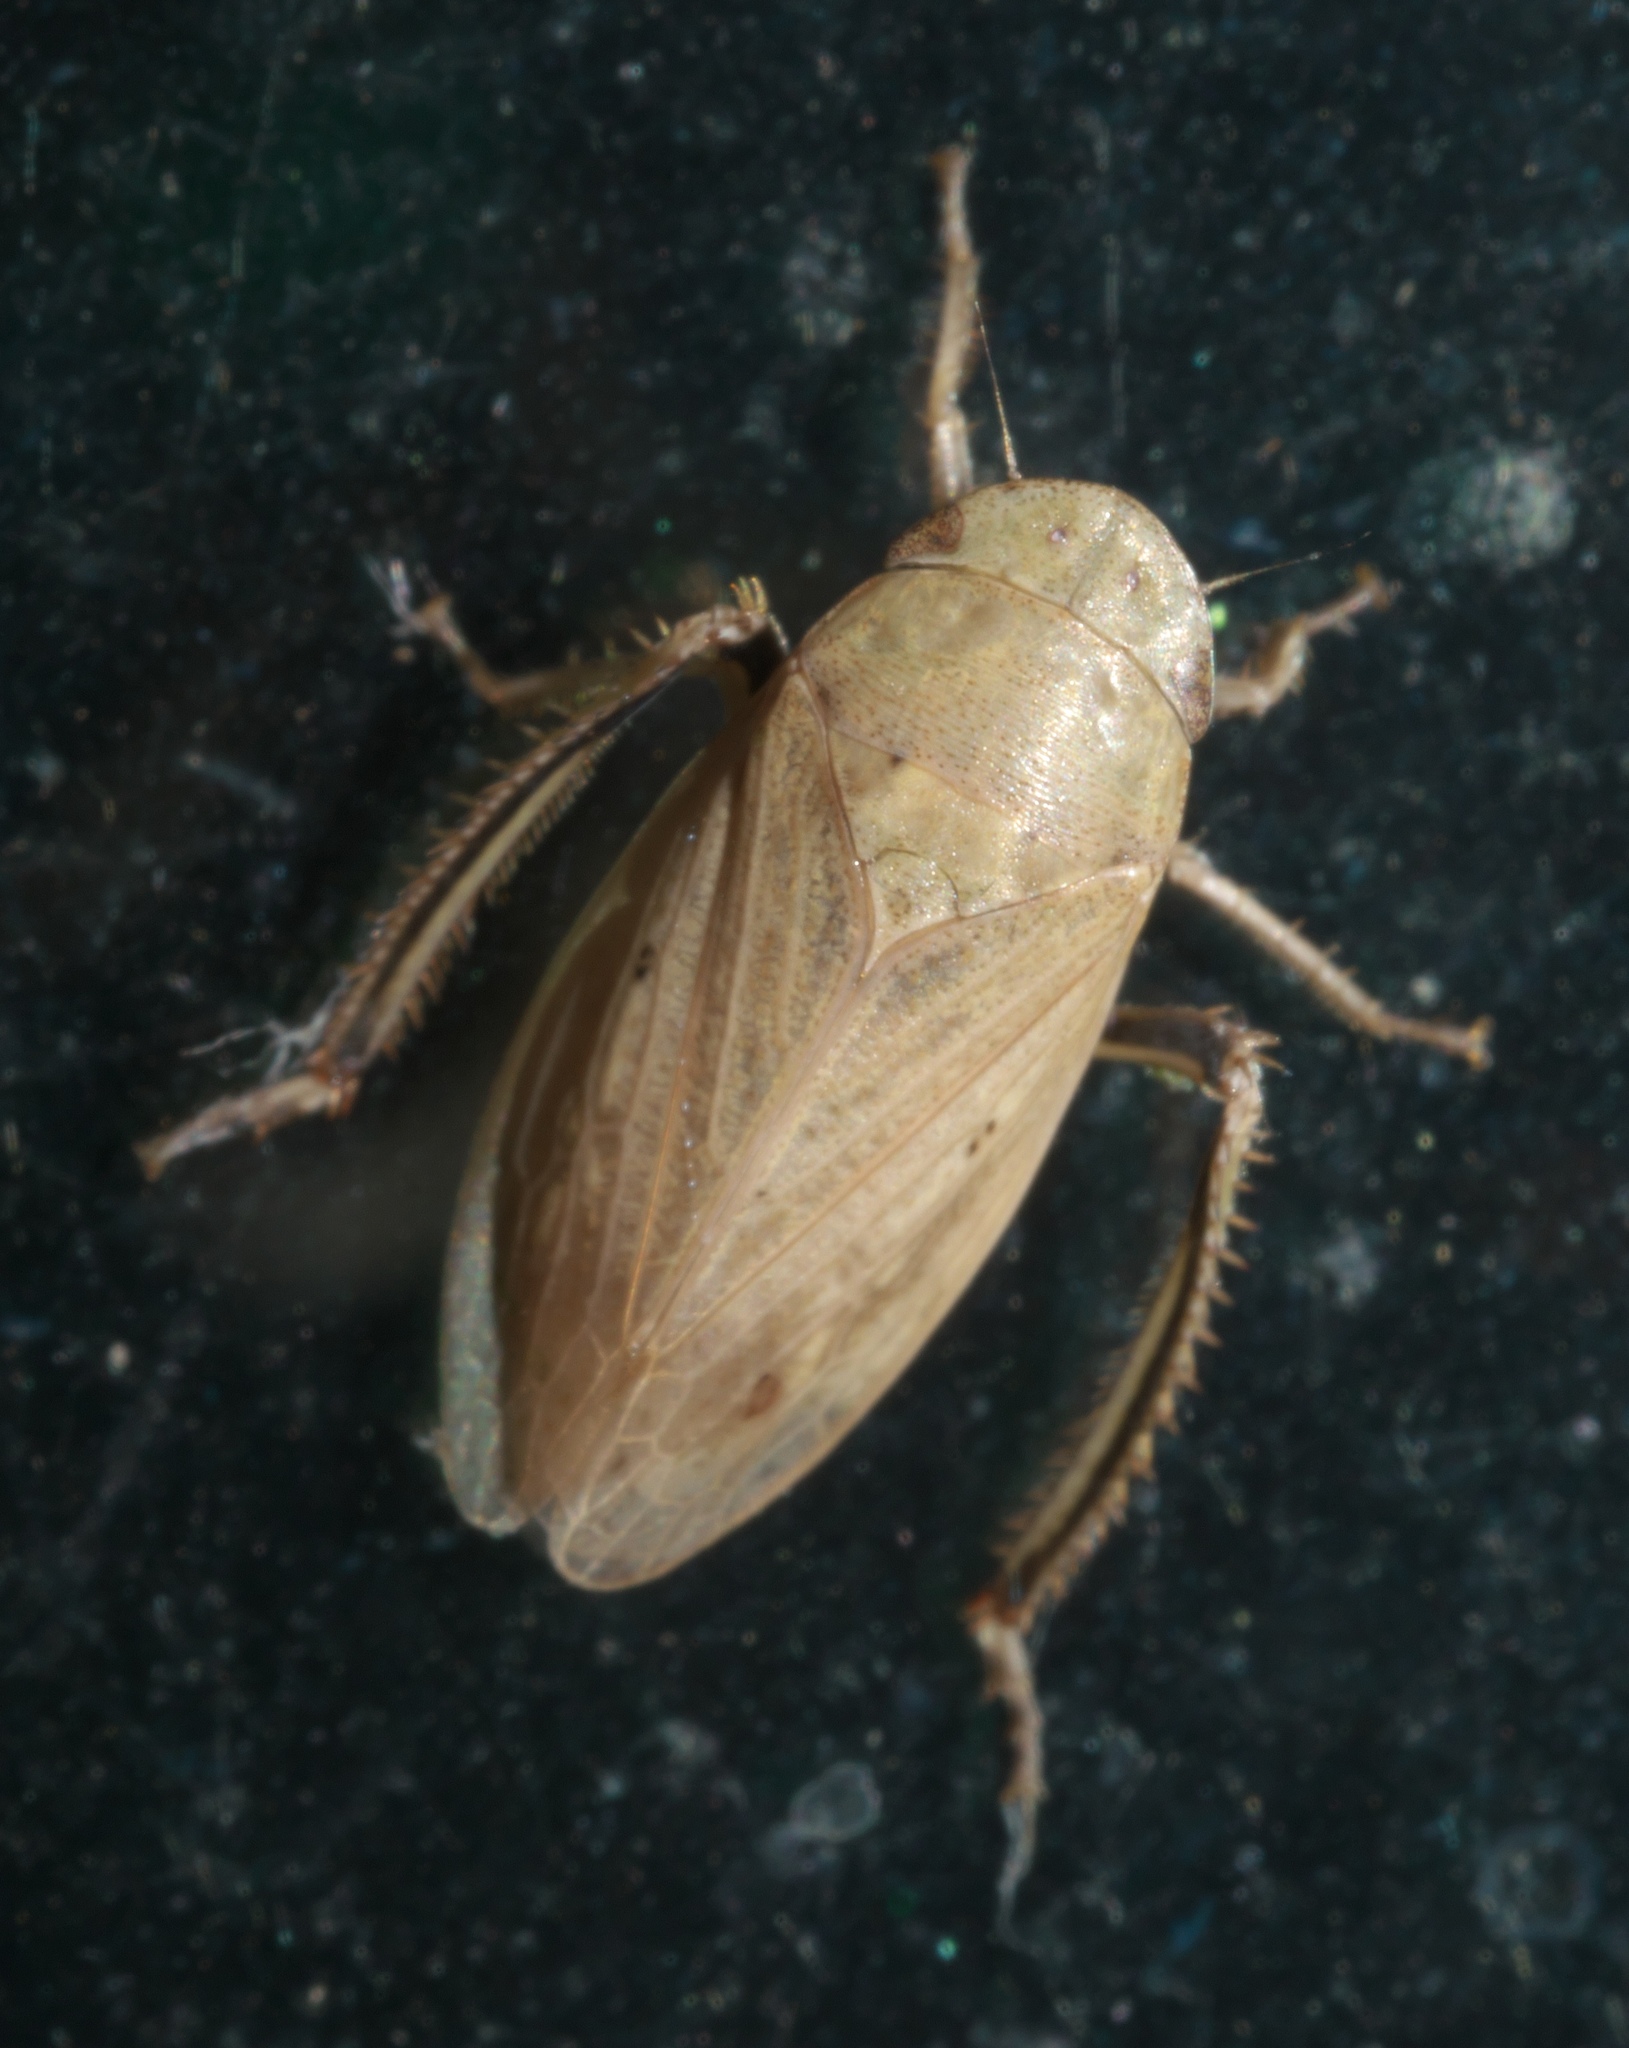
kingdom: Animalia
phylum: Arthropoda
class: Insecta
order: Hemiptera
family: Cicadellidae
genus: Negosiana
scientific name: Negosiana dualis
